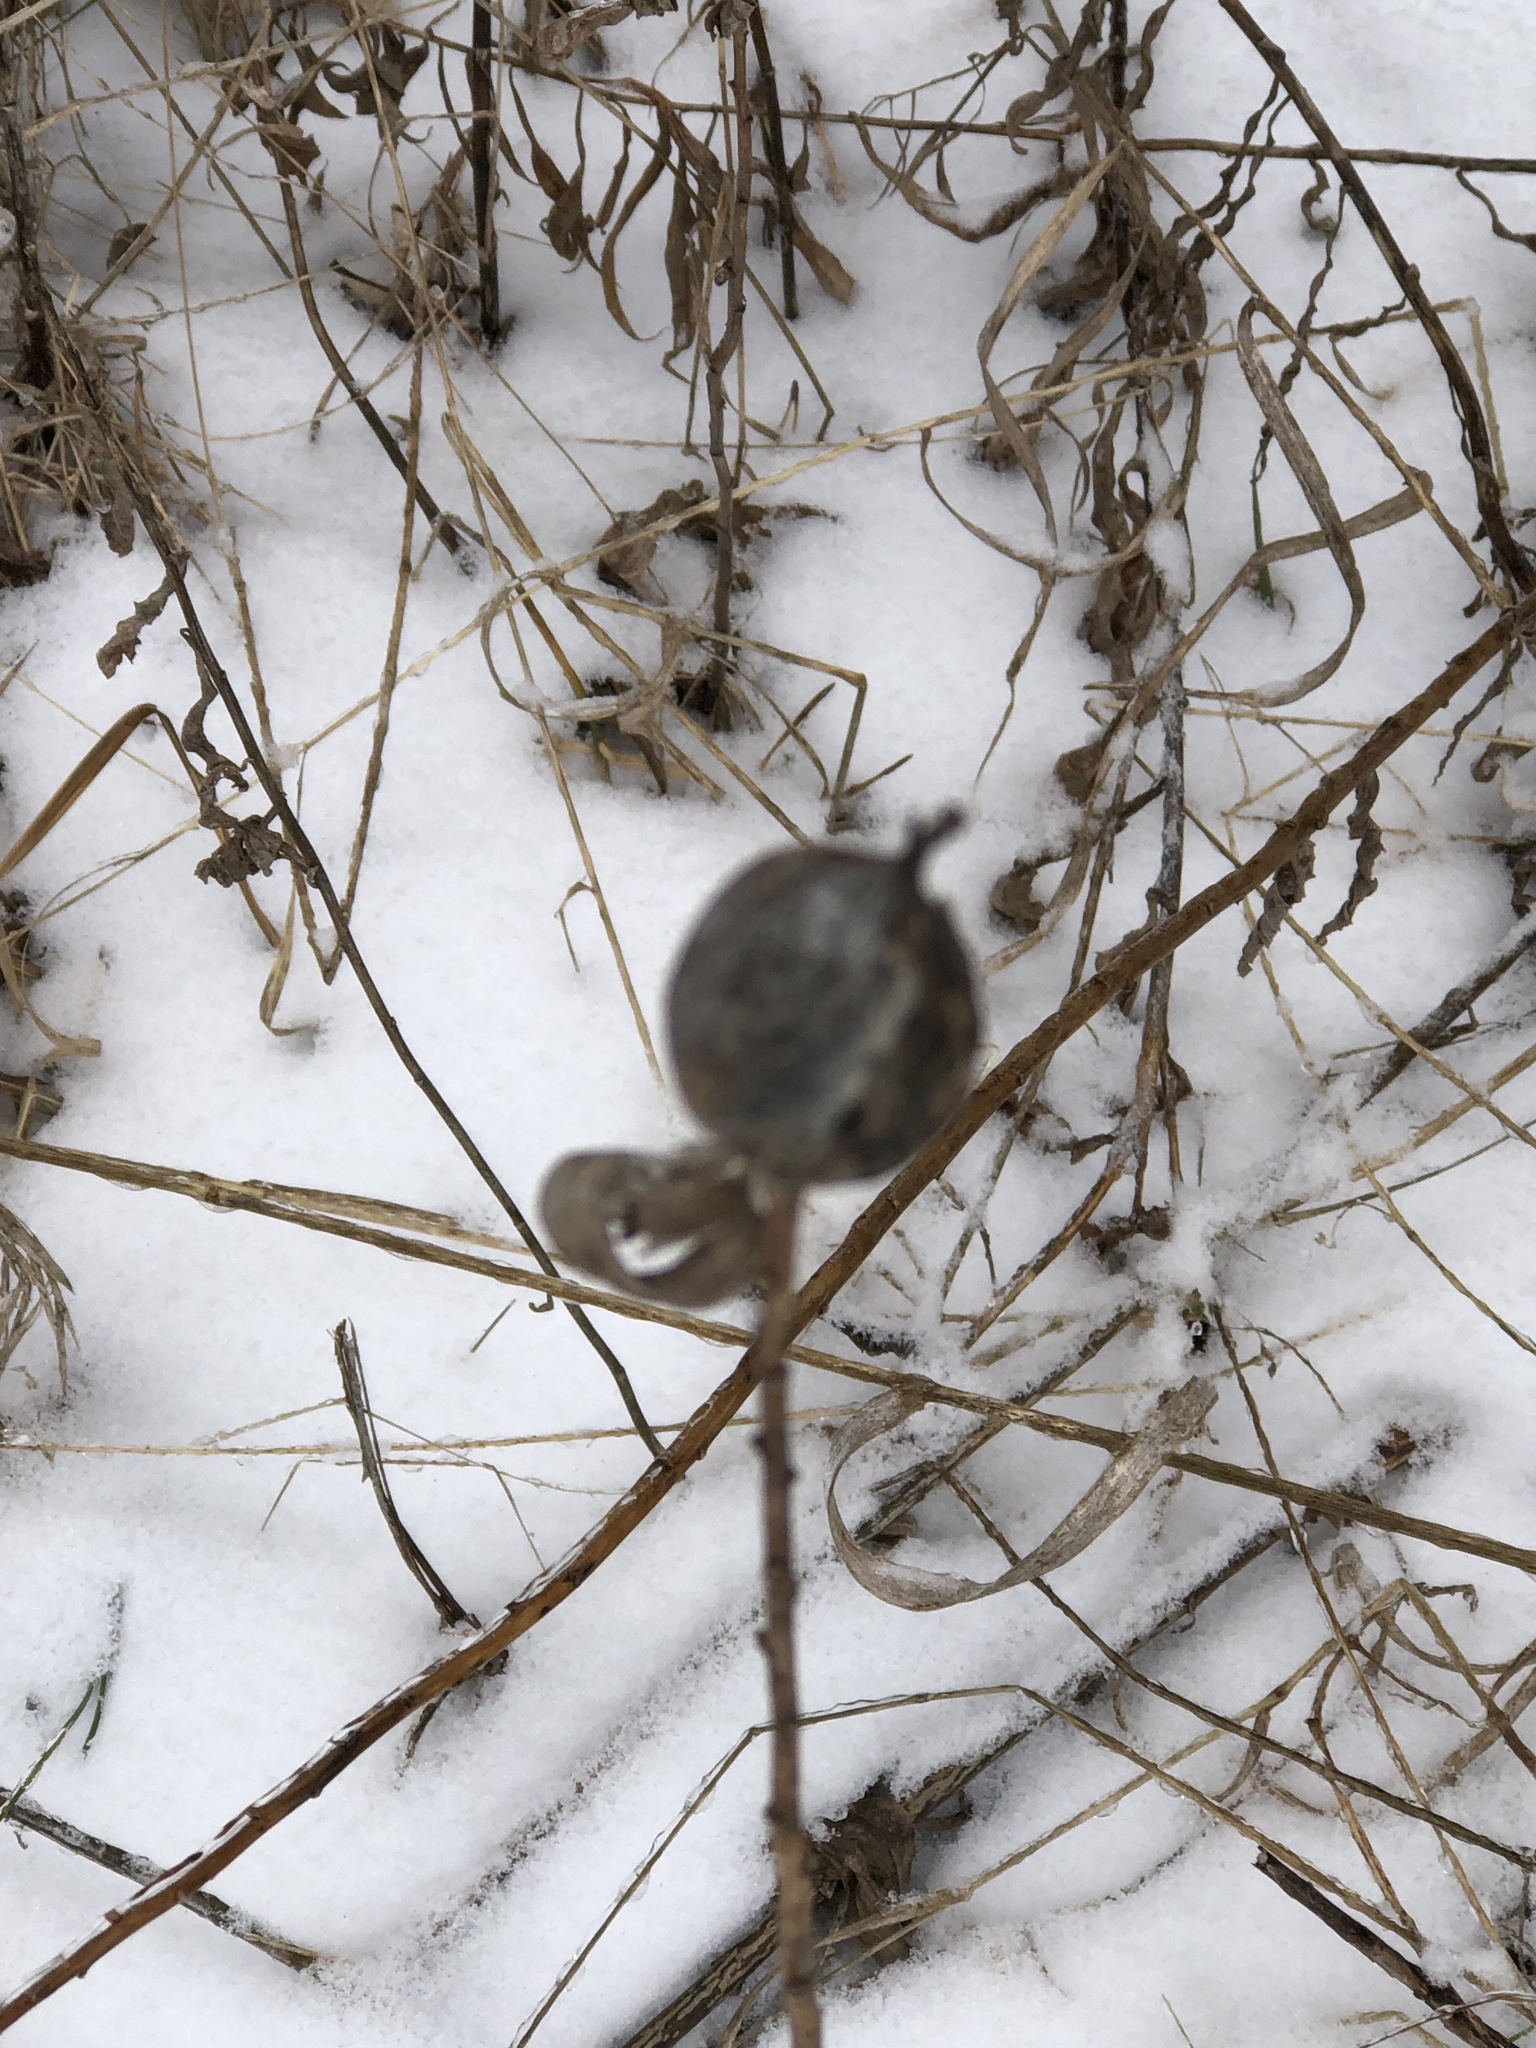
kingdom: Animalia
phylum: Arthropoda
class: Insecta
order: Diptera
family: Tephritidae
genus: Eurosta
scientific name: Eurosta solidaginis
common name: Goldenrod gall fly
